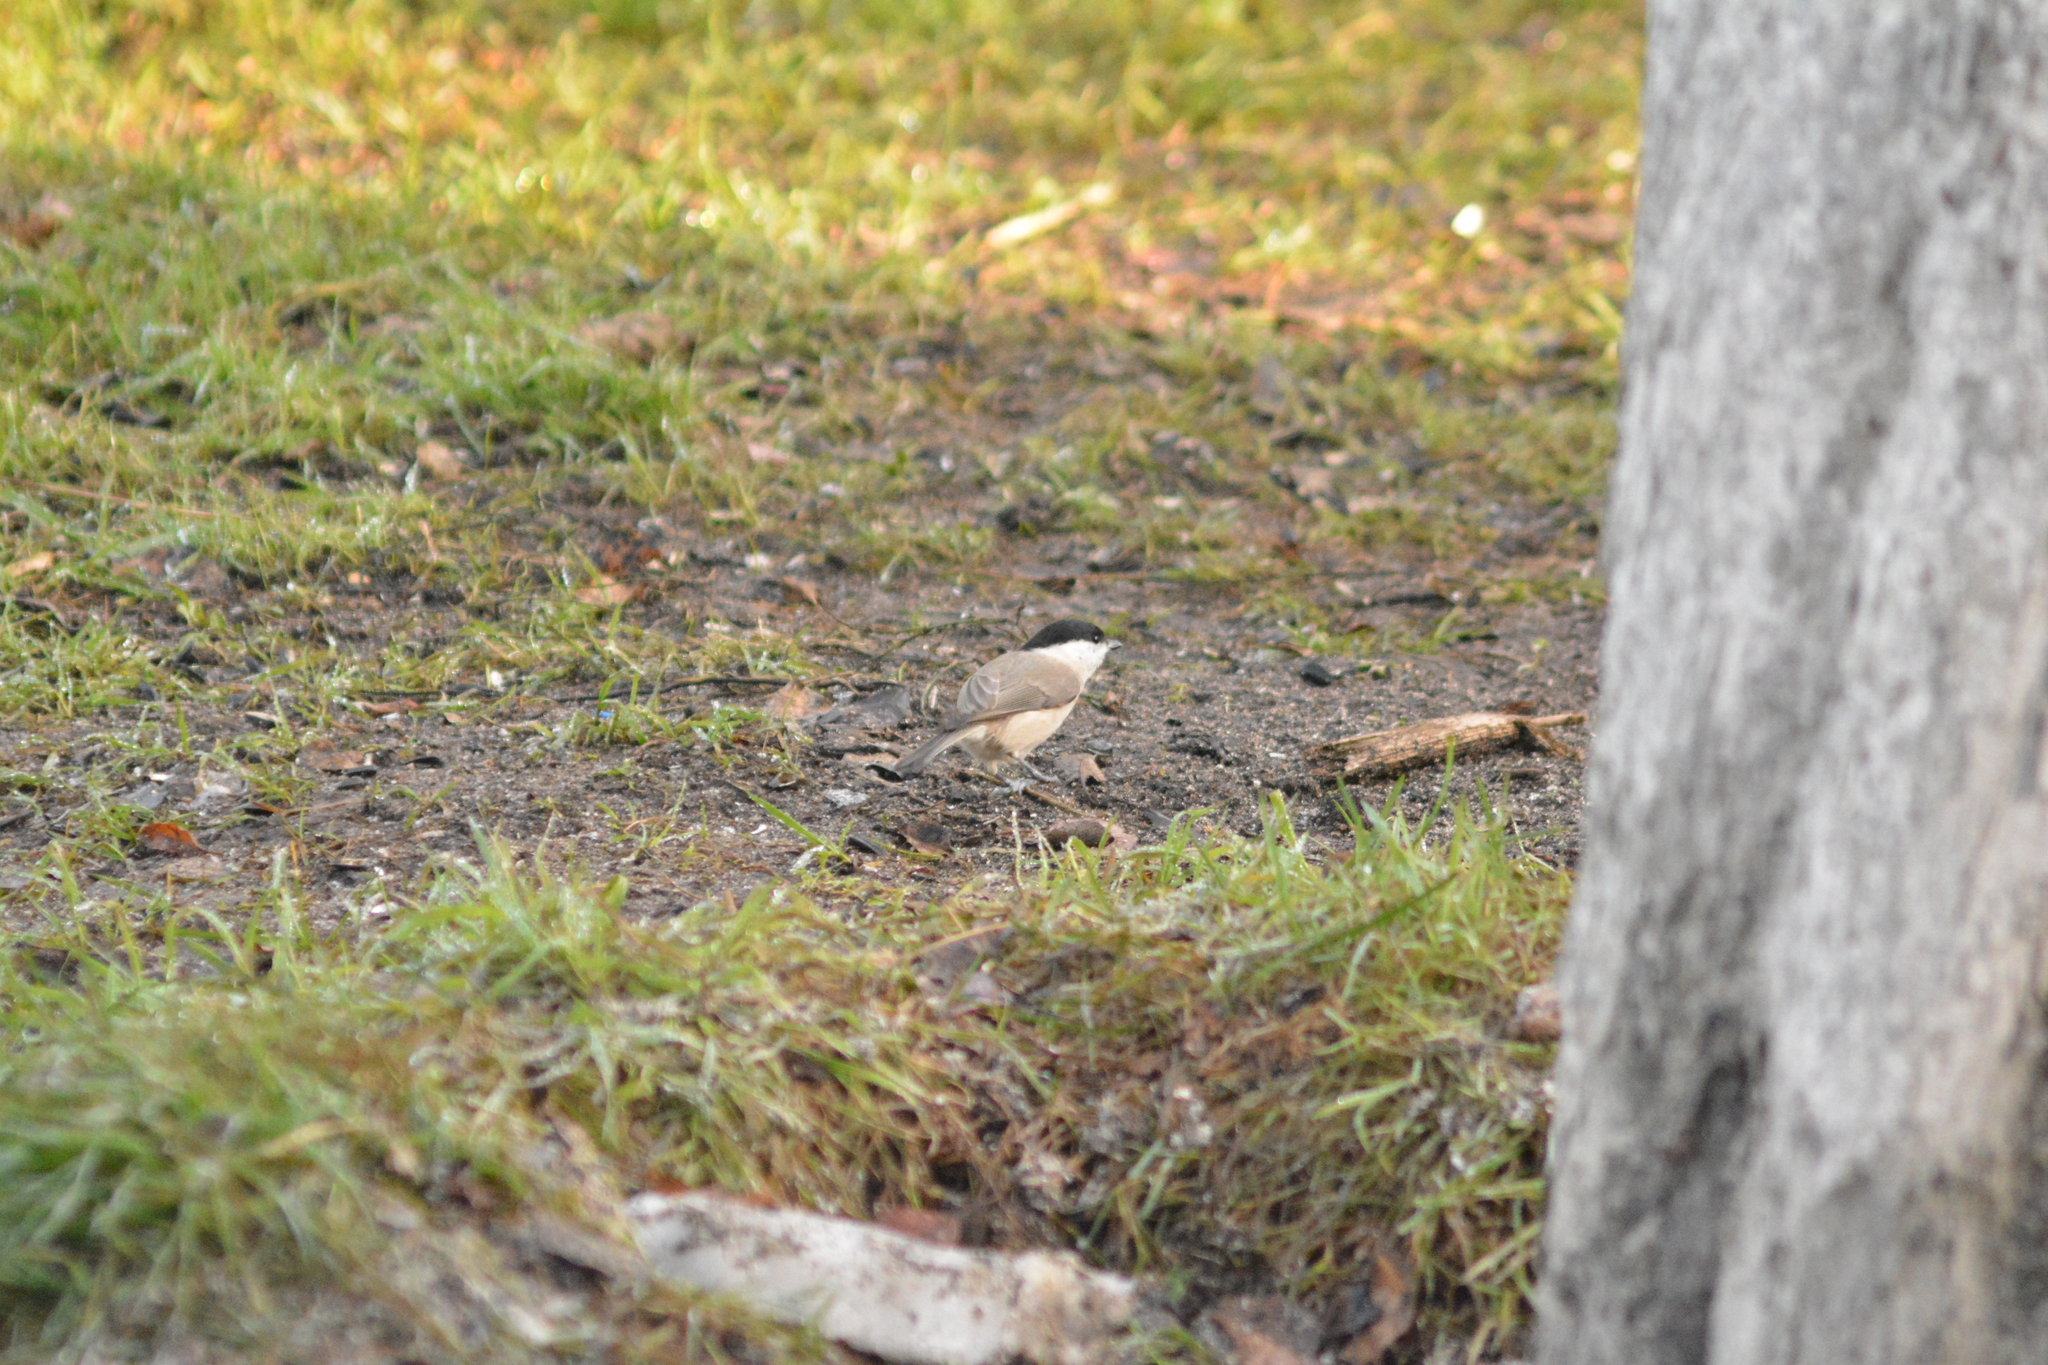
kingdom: Animalia
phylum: Chordata
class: Aves
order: Passeriformes
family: Paridae
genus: Poecile
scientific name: Poecile palustris
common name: Marsh tit
